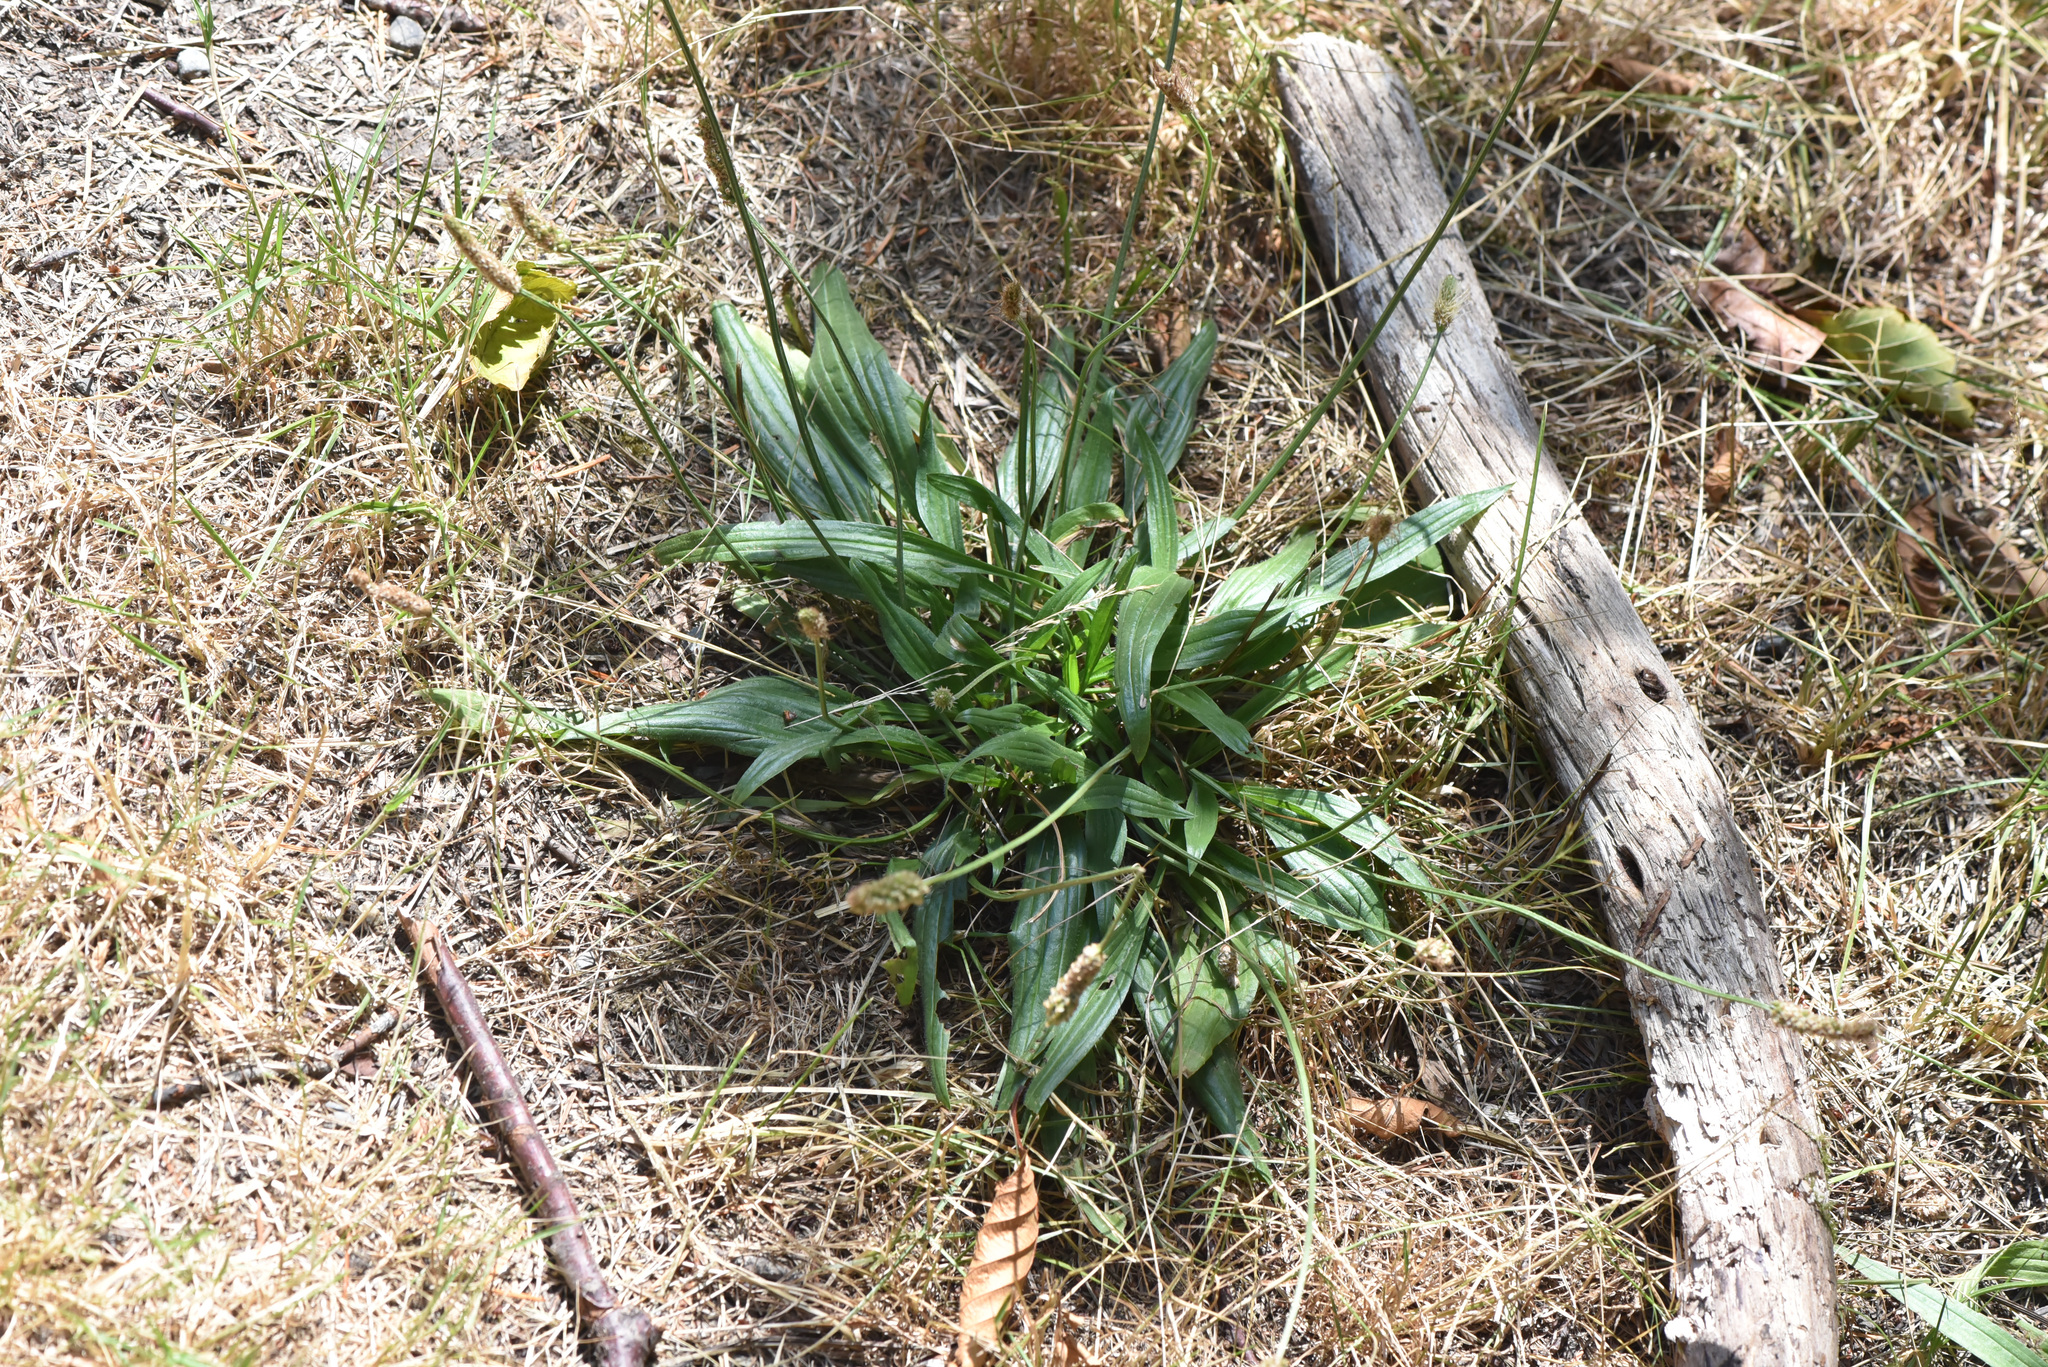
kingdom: Plantae
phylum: Tracheophyta
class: Magnoliopsida
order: Lamiales
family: Plantaginaceae
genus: Plantago
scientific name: Plantago lanceolata
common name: Ribwort plantain
